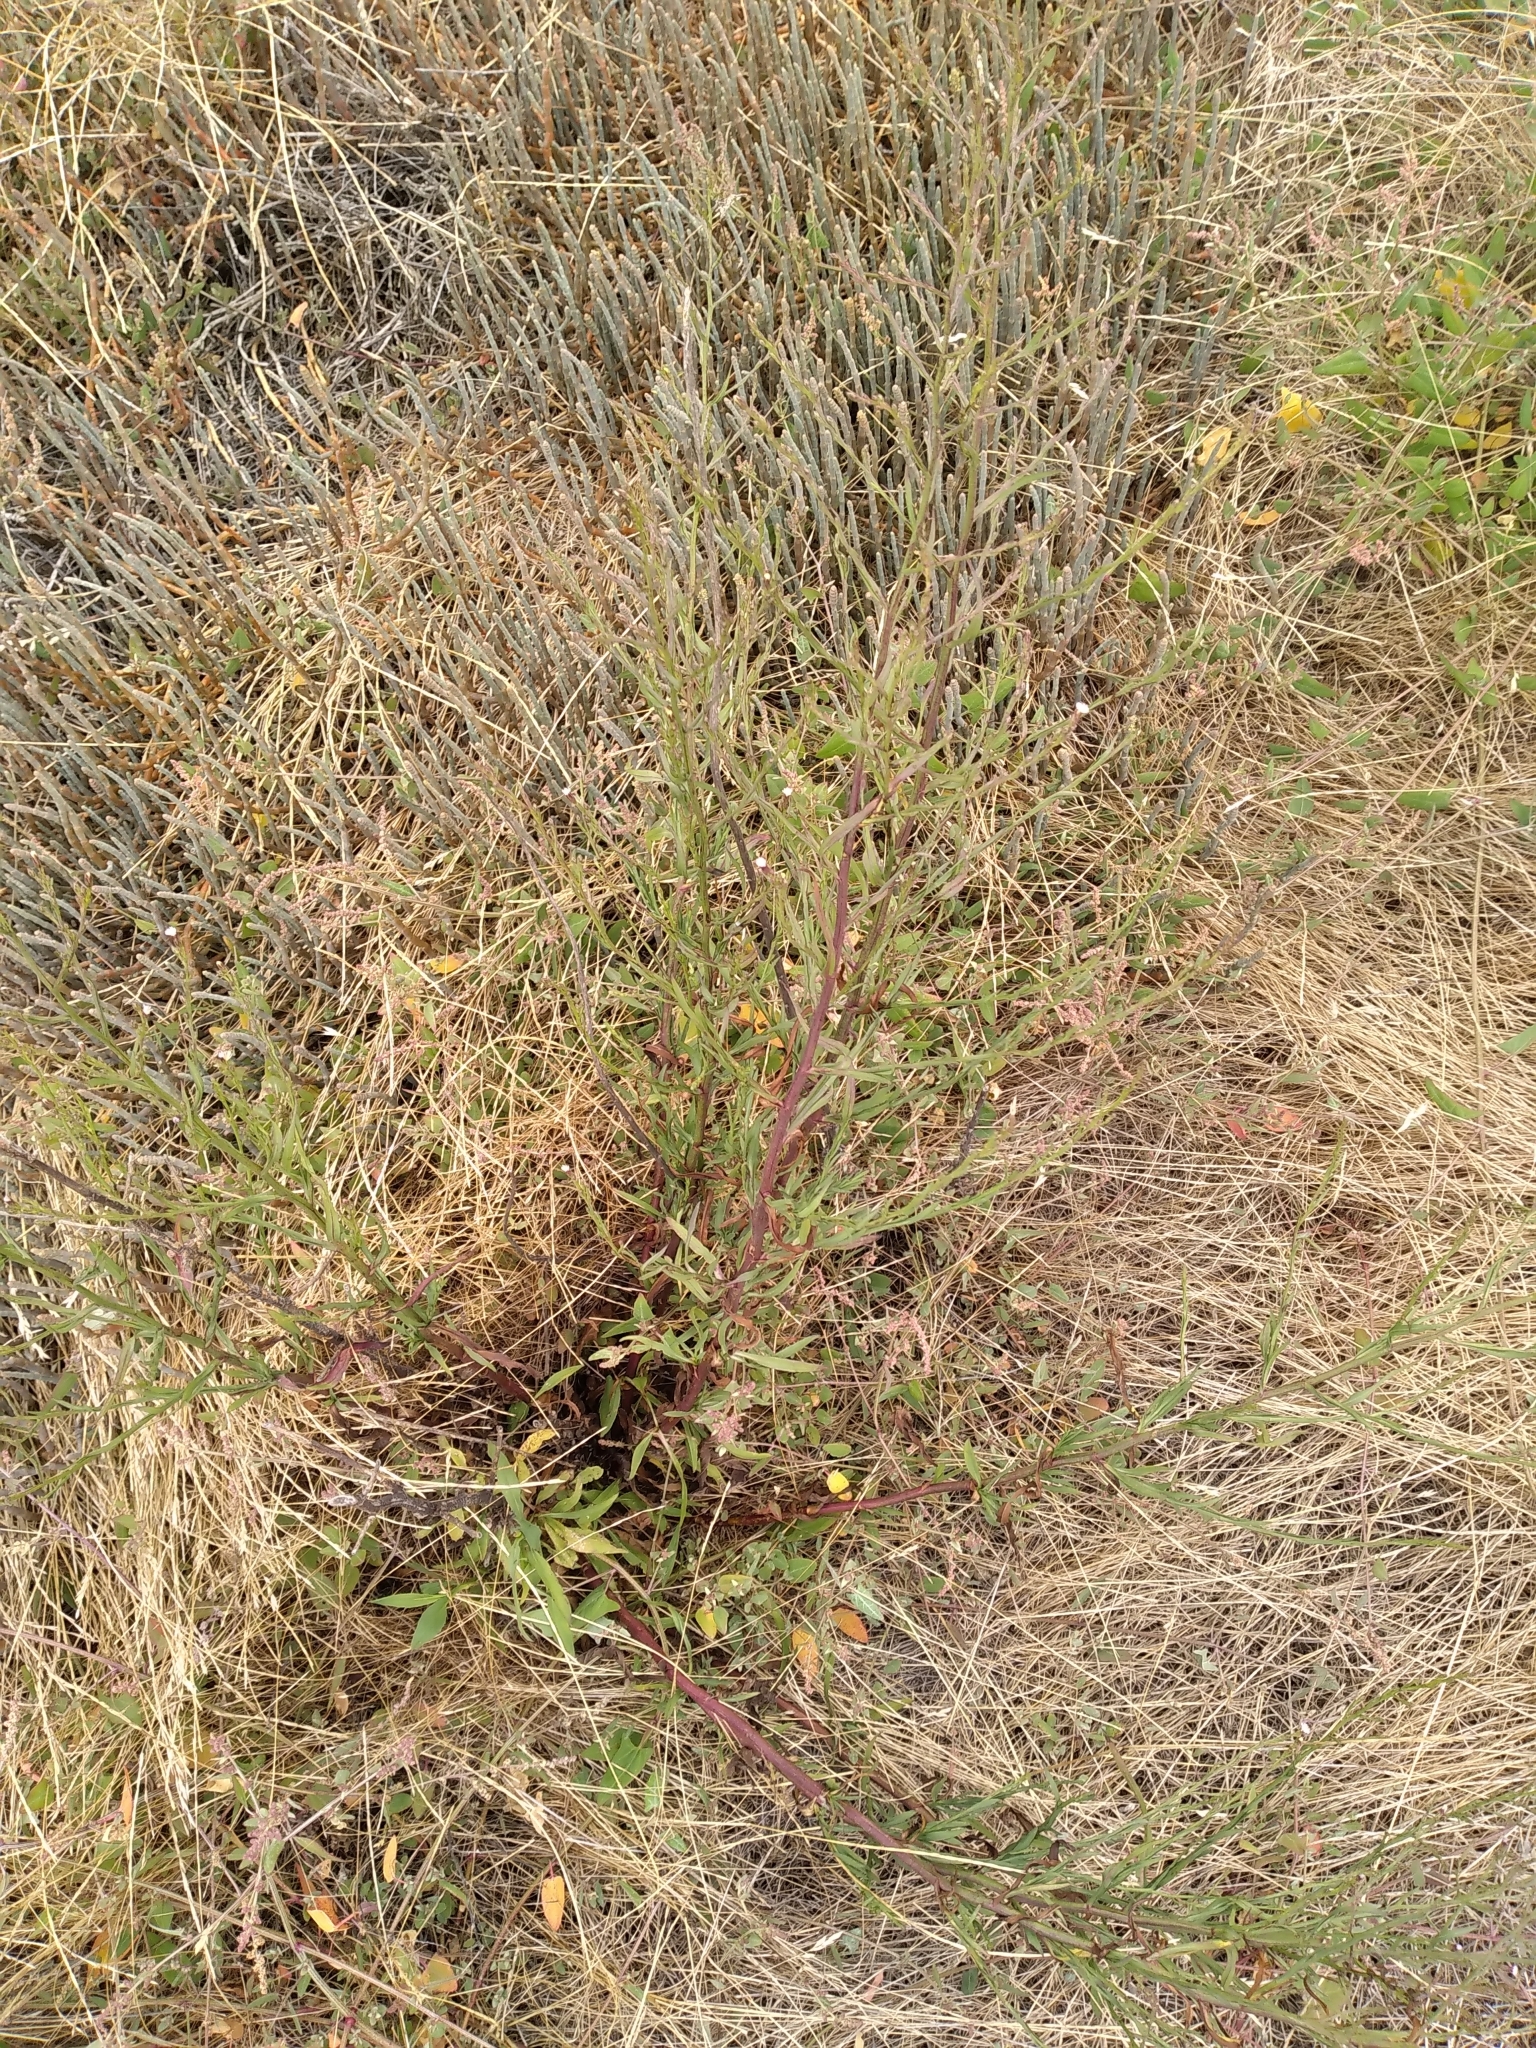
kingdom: Plantae
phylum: Tracheophyta
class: Magnoliopsida
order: Asterales
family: Asteraceae
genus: Symphyotrichum
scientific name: Symphyotrichum subulatum
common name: Annual saltmarsh aster
